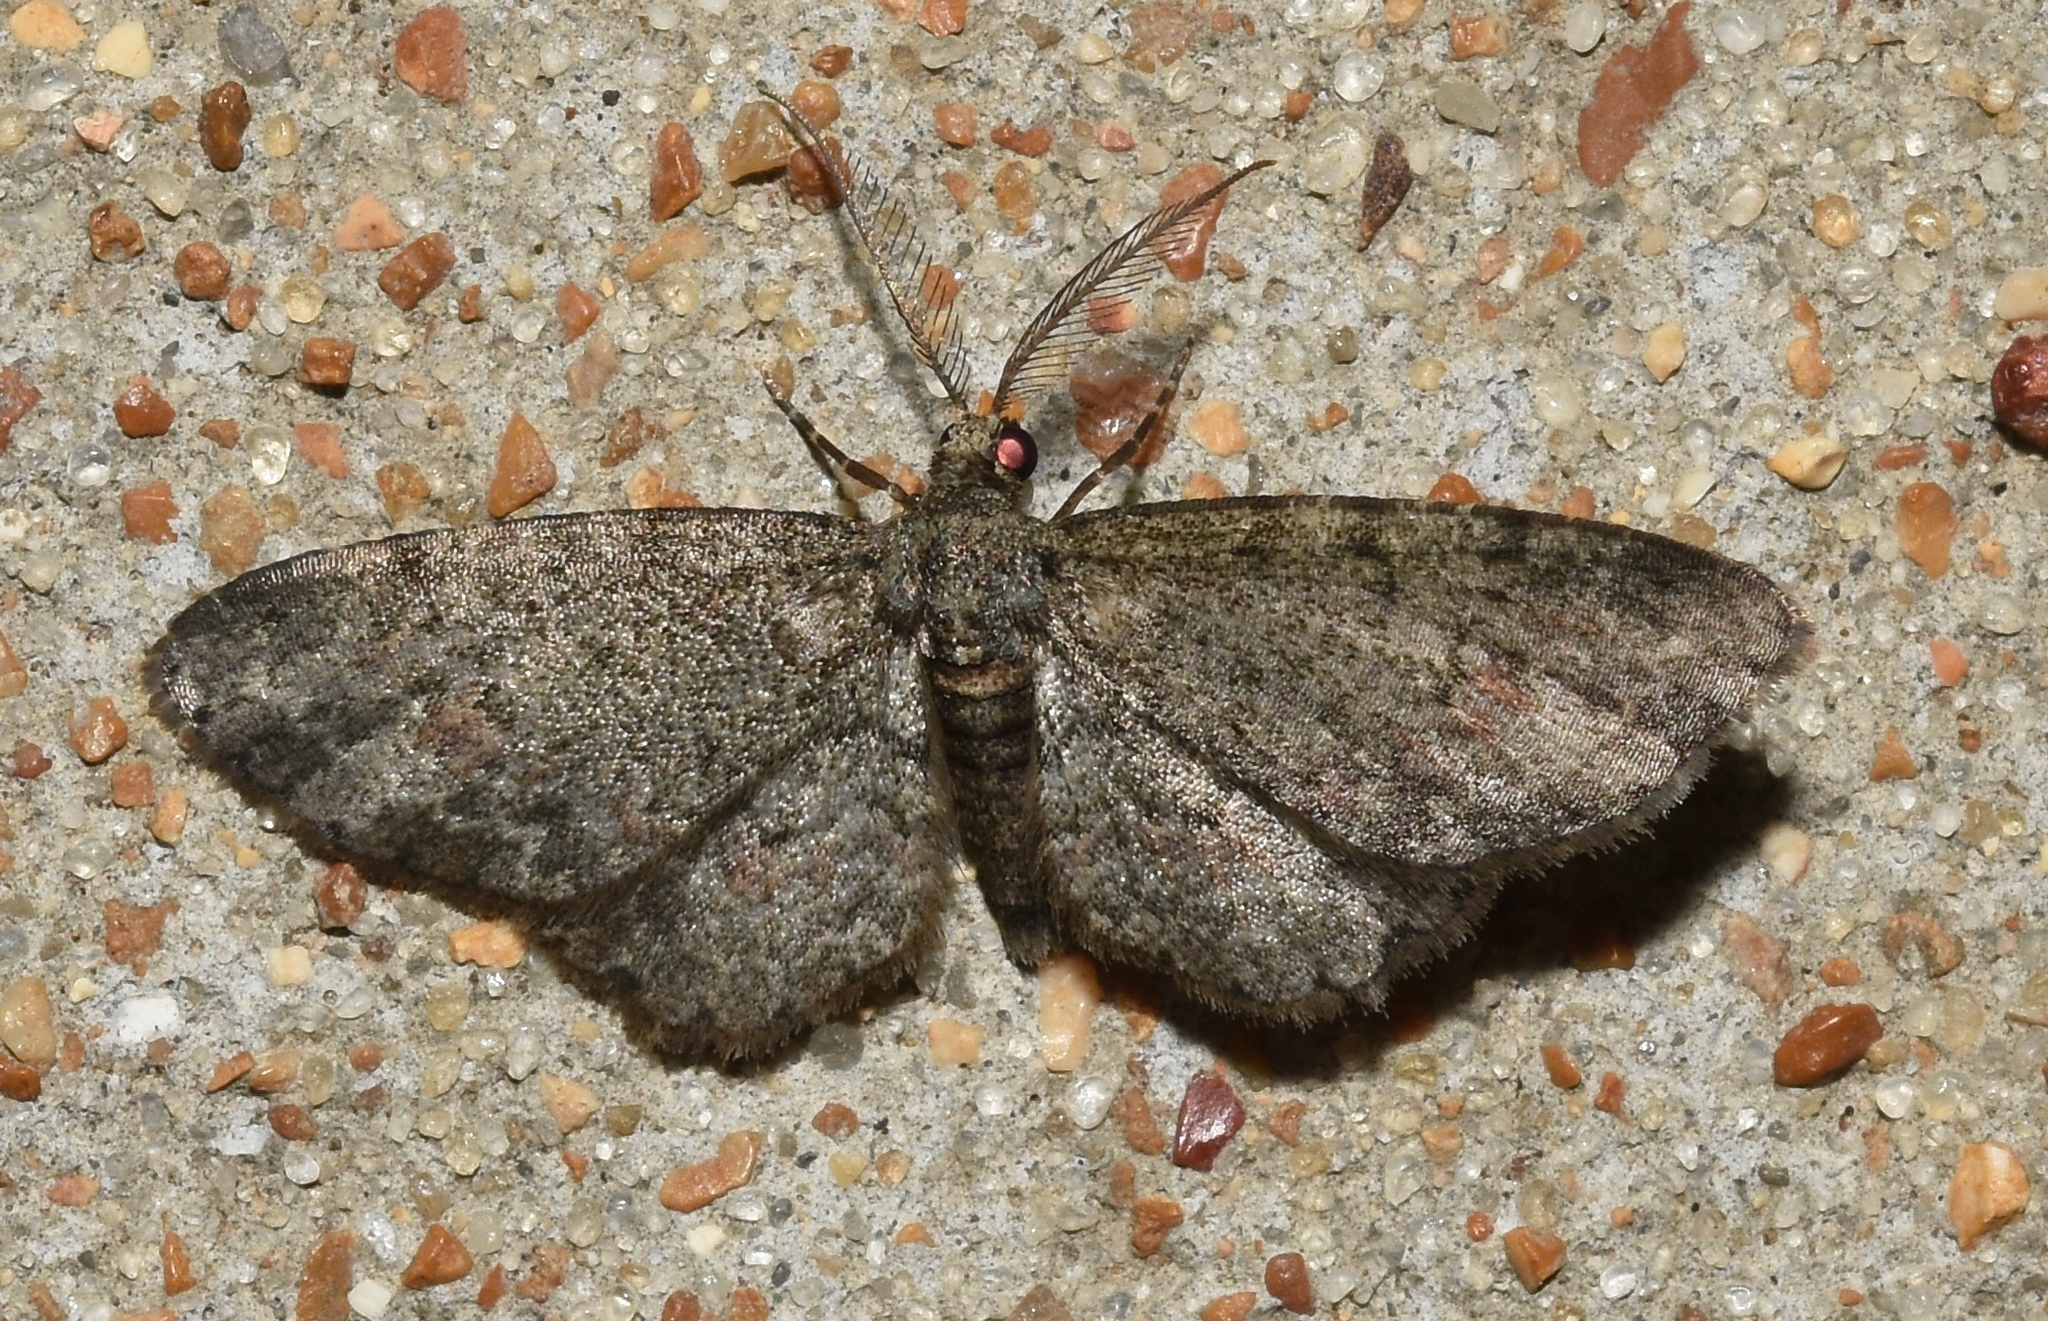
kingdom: Animalia
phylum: Arthropoda
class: Insecta
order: Lepidoptera
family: Geometridae
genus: Glenoides
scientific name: Glenoides texanaria
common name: Texas gray
